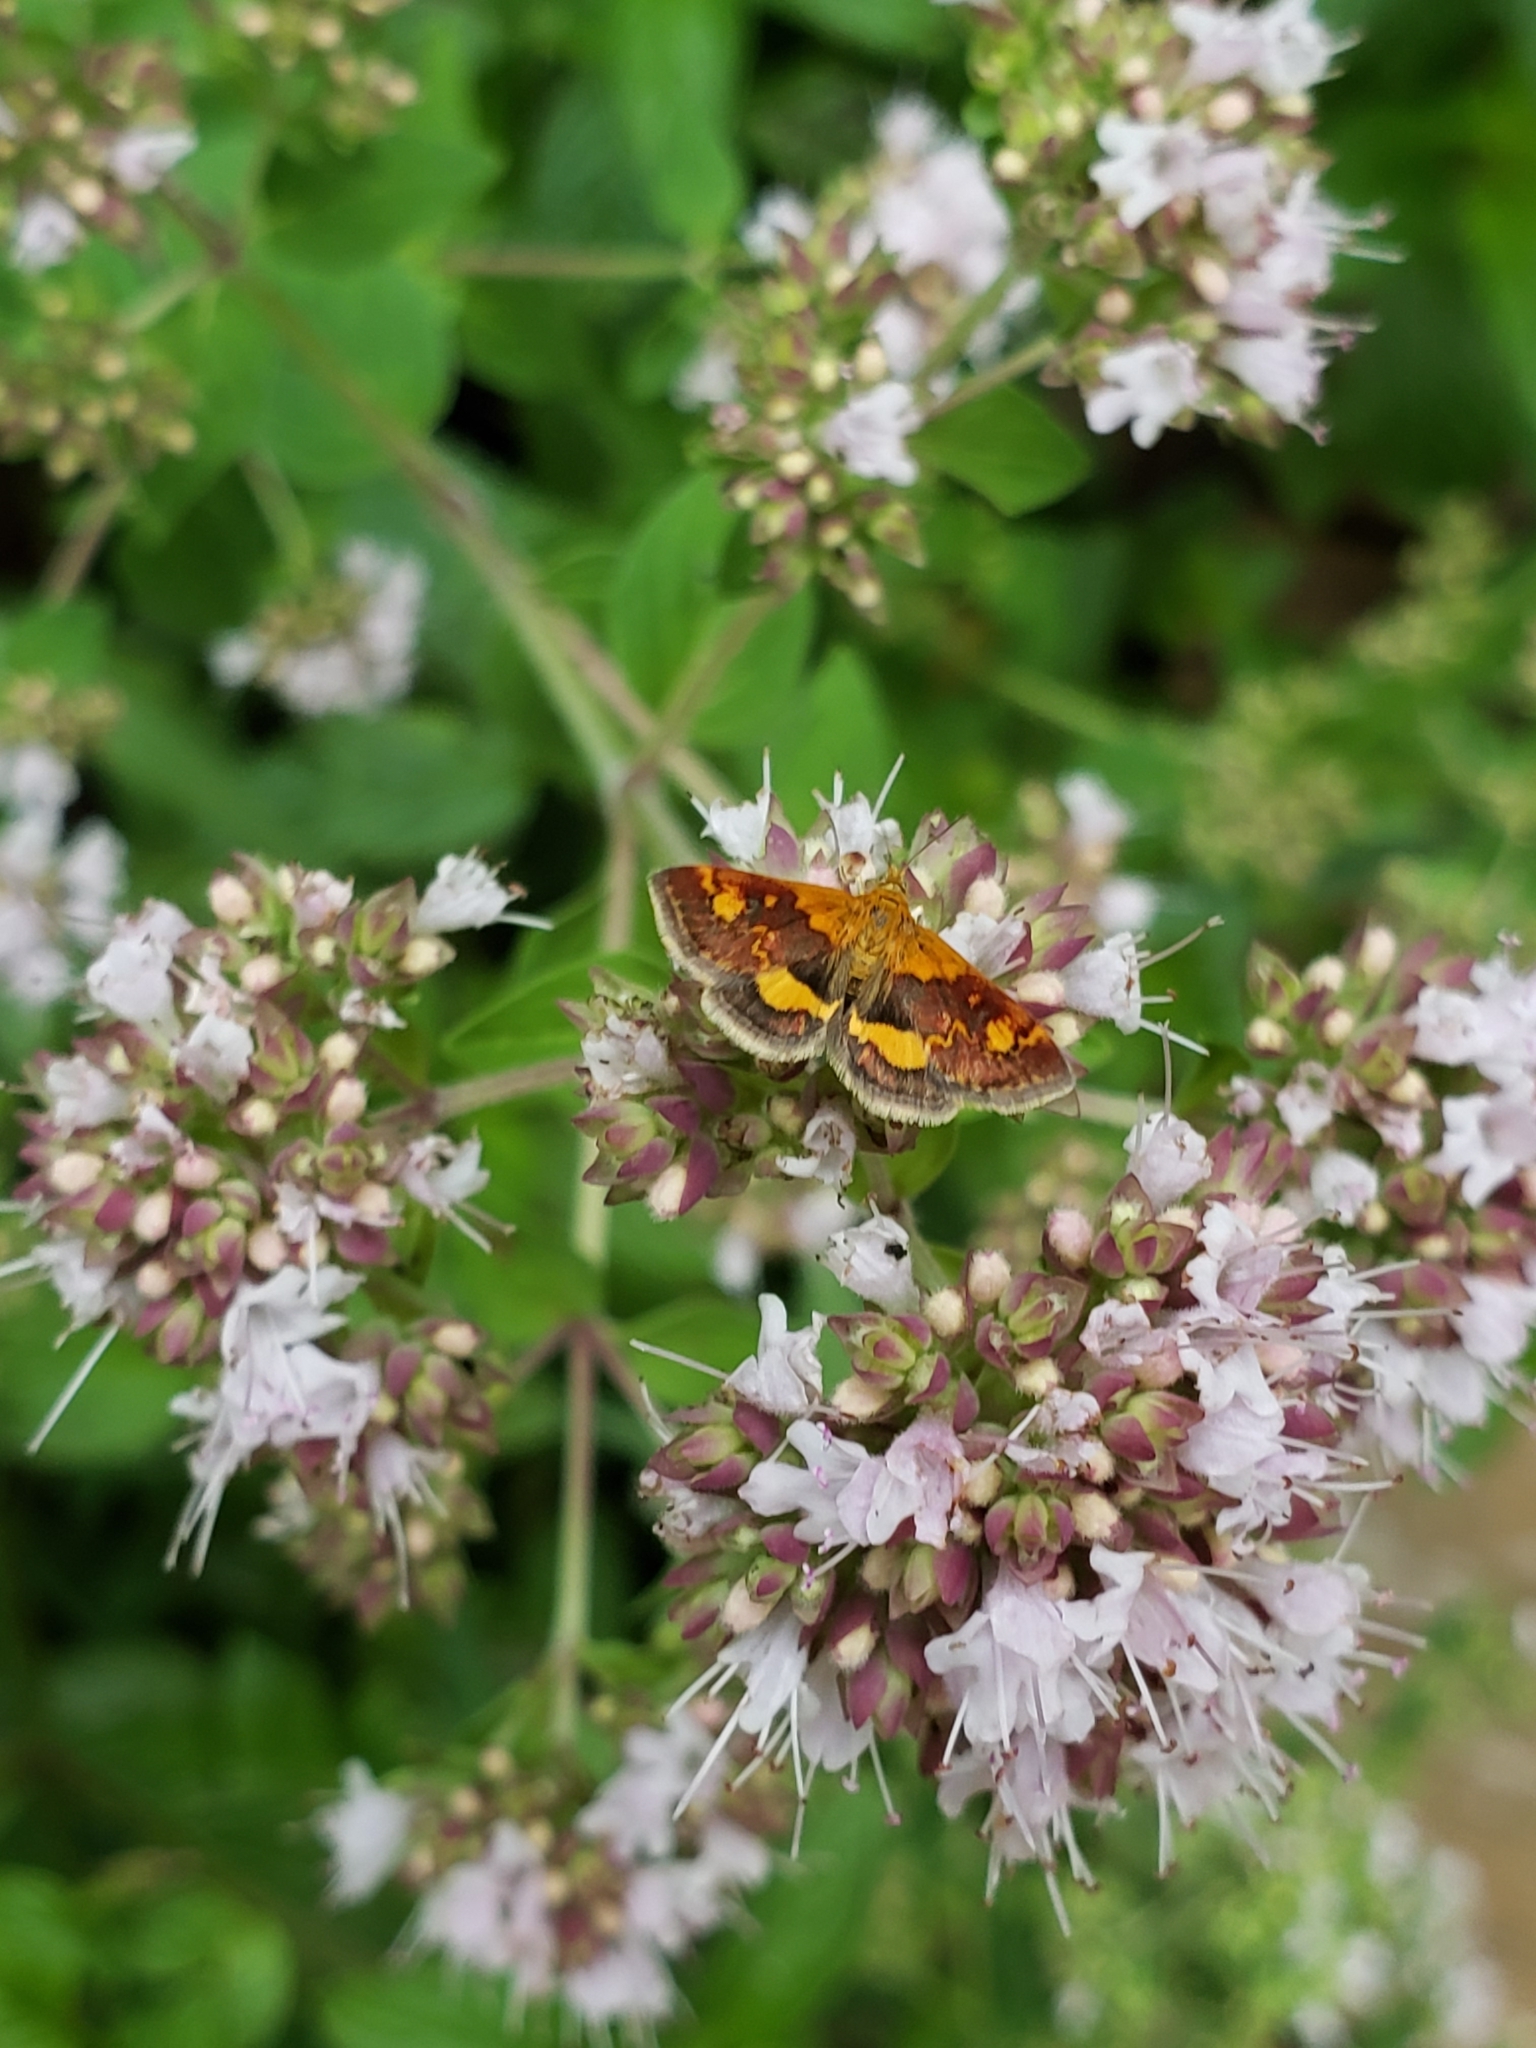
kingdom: Animalia
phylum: Arthropoda
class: Insecta
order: Lepidoptera
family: Crambidae
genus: Pyrausta
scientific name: Pyrausta orphisalis
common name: Orange mint moth
